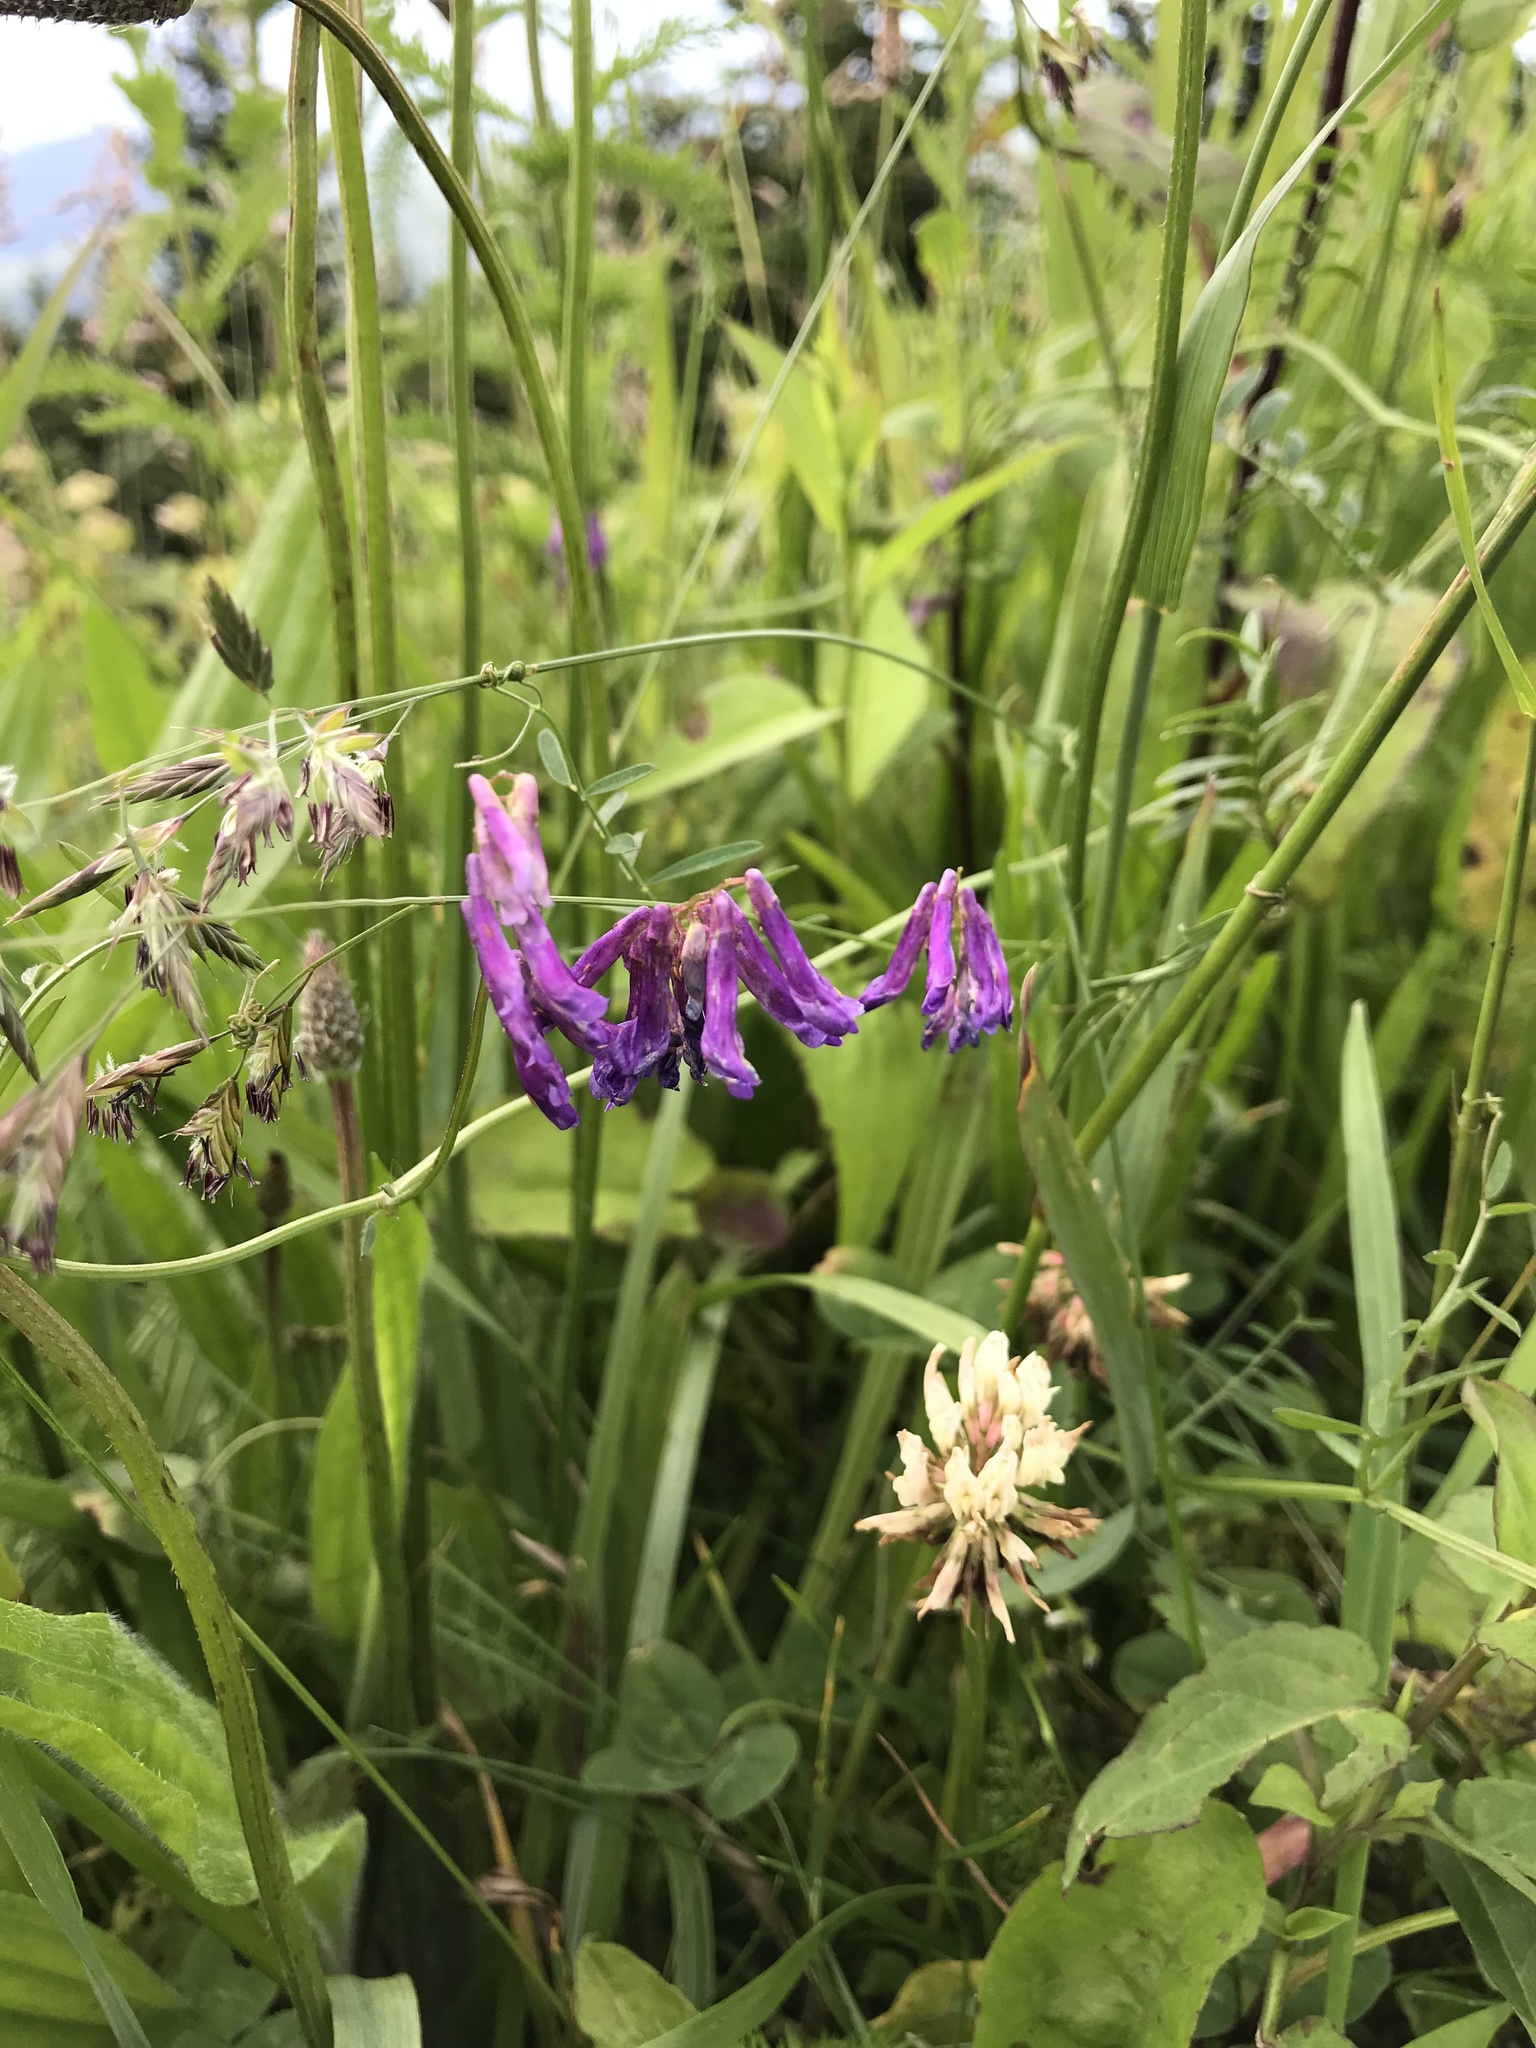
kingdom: Plantae
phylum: Tracheophyta
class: Magnoliopsida
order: Fabales
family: Fabaceae
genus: Vicia
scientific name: Vicia villosa
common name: Fodder vetch
